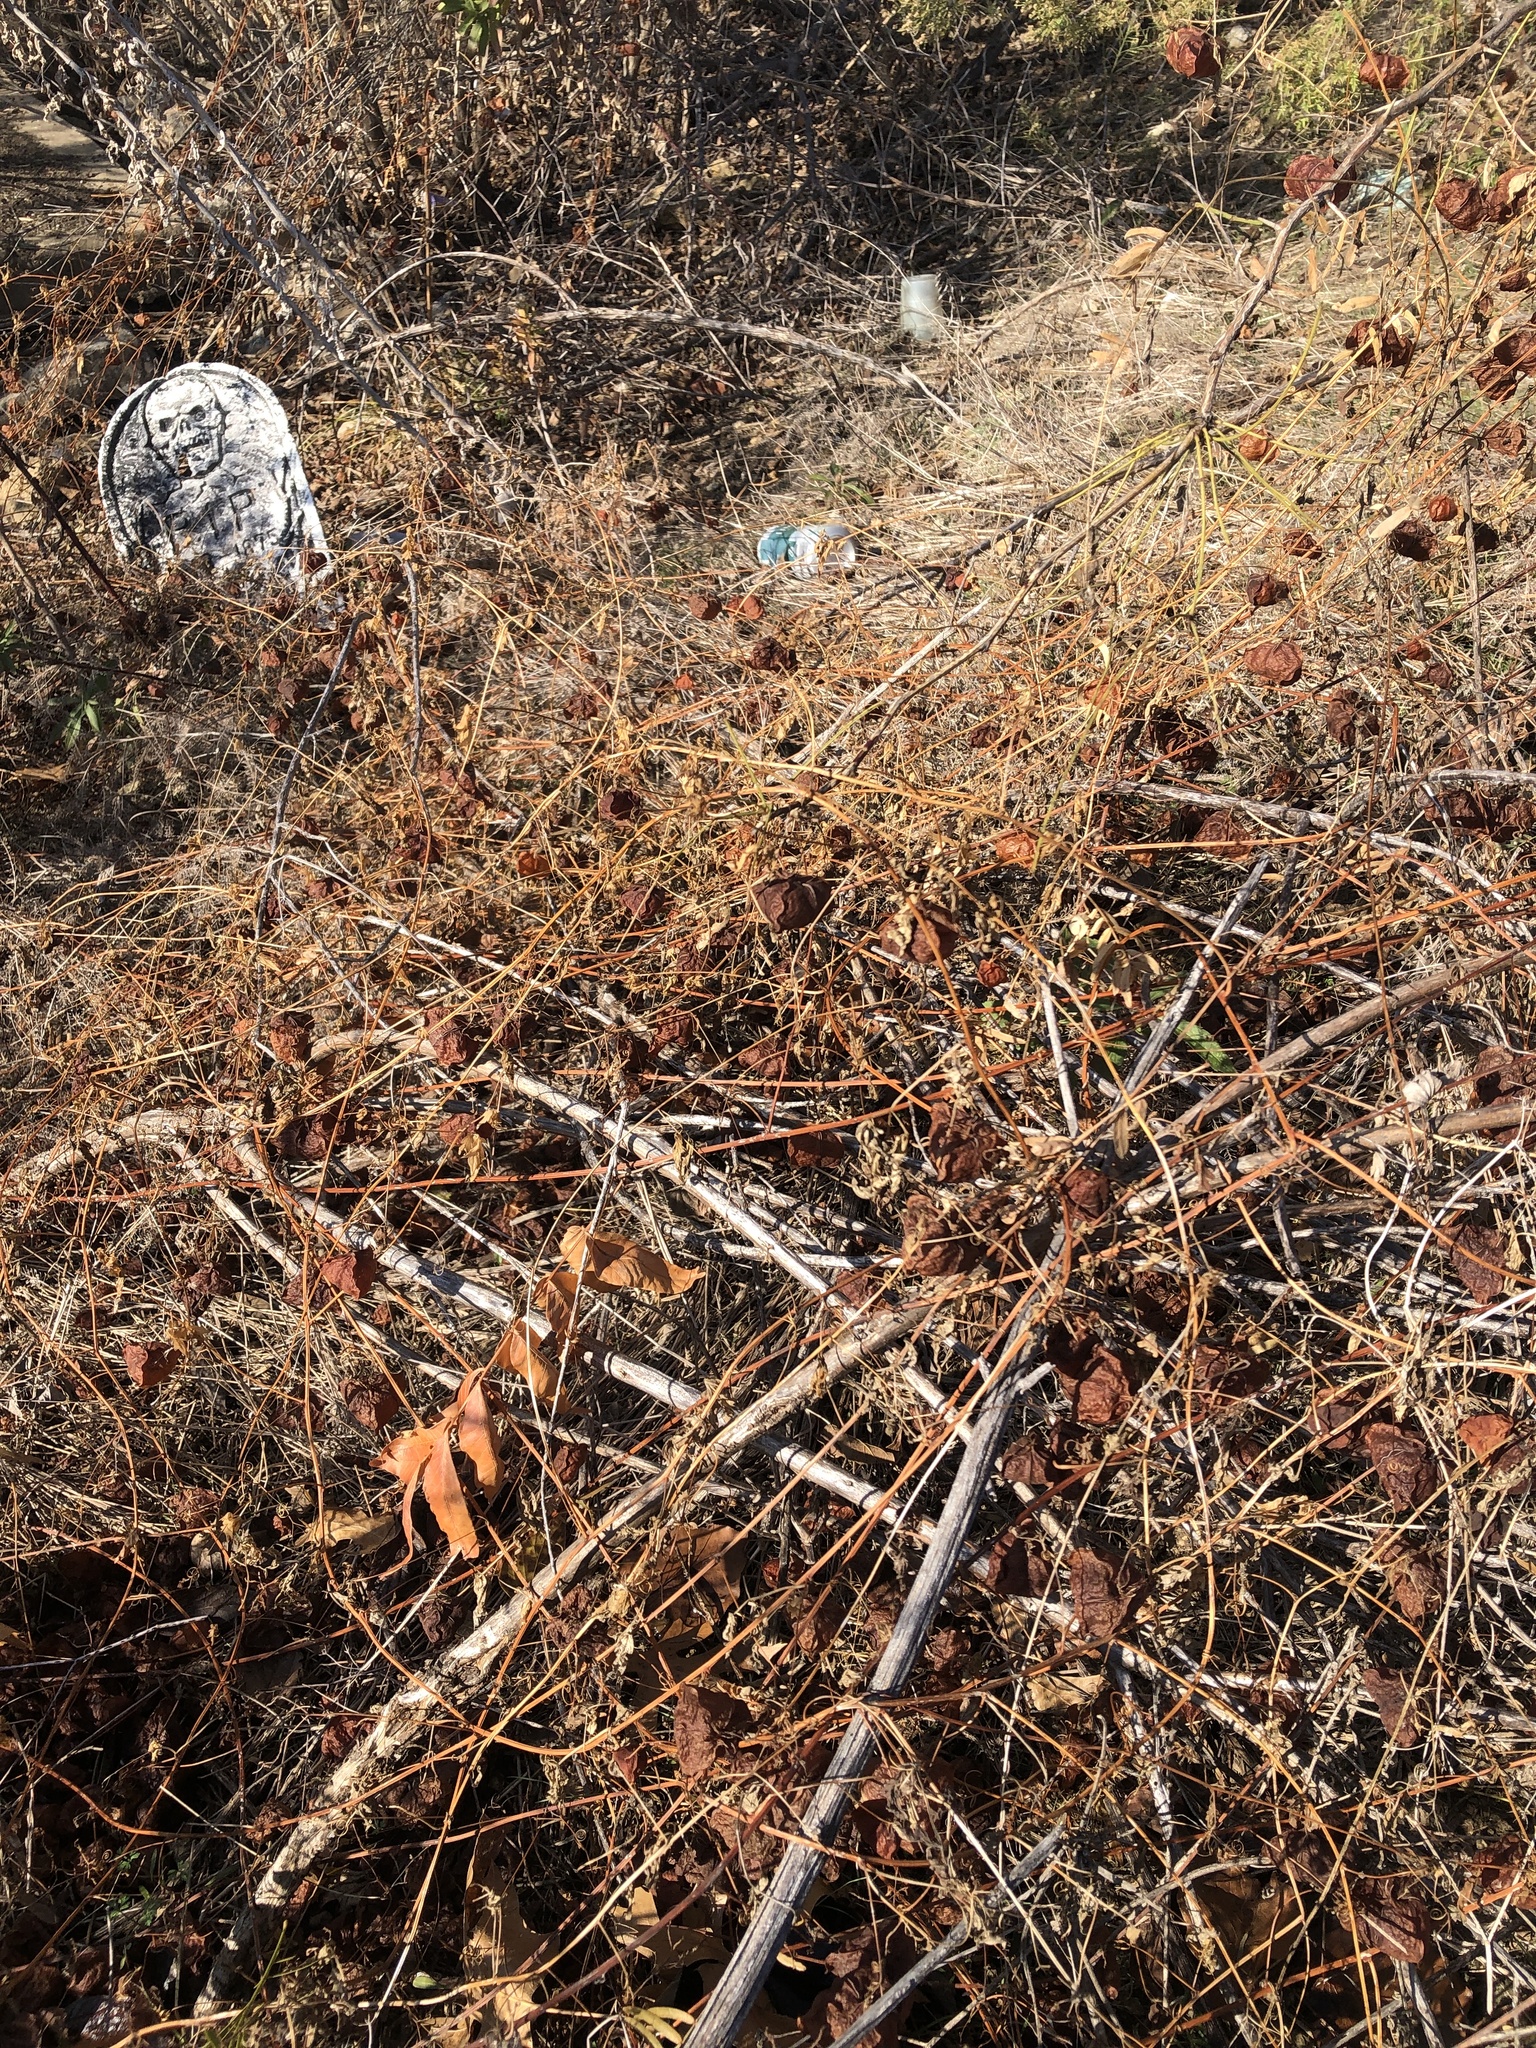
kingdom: Plantae
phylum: Tracheophyta
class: Magnoliopsida
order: Sapindales
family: Sapindaceae
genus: Cardiospermum
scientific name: Cardiospermum halicacabum
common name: Balloon vine
